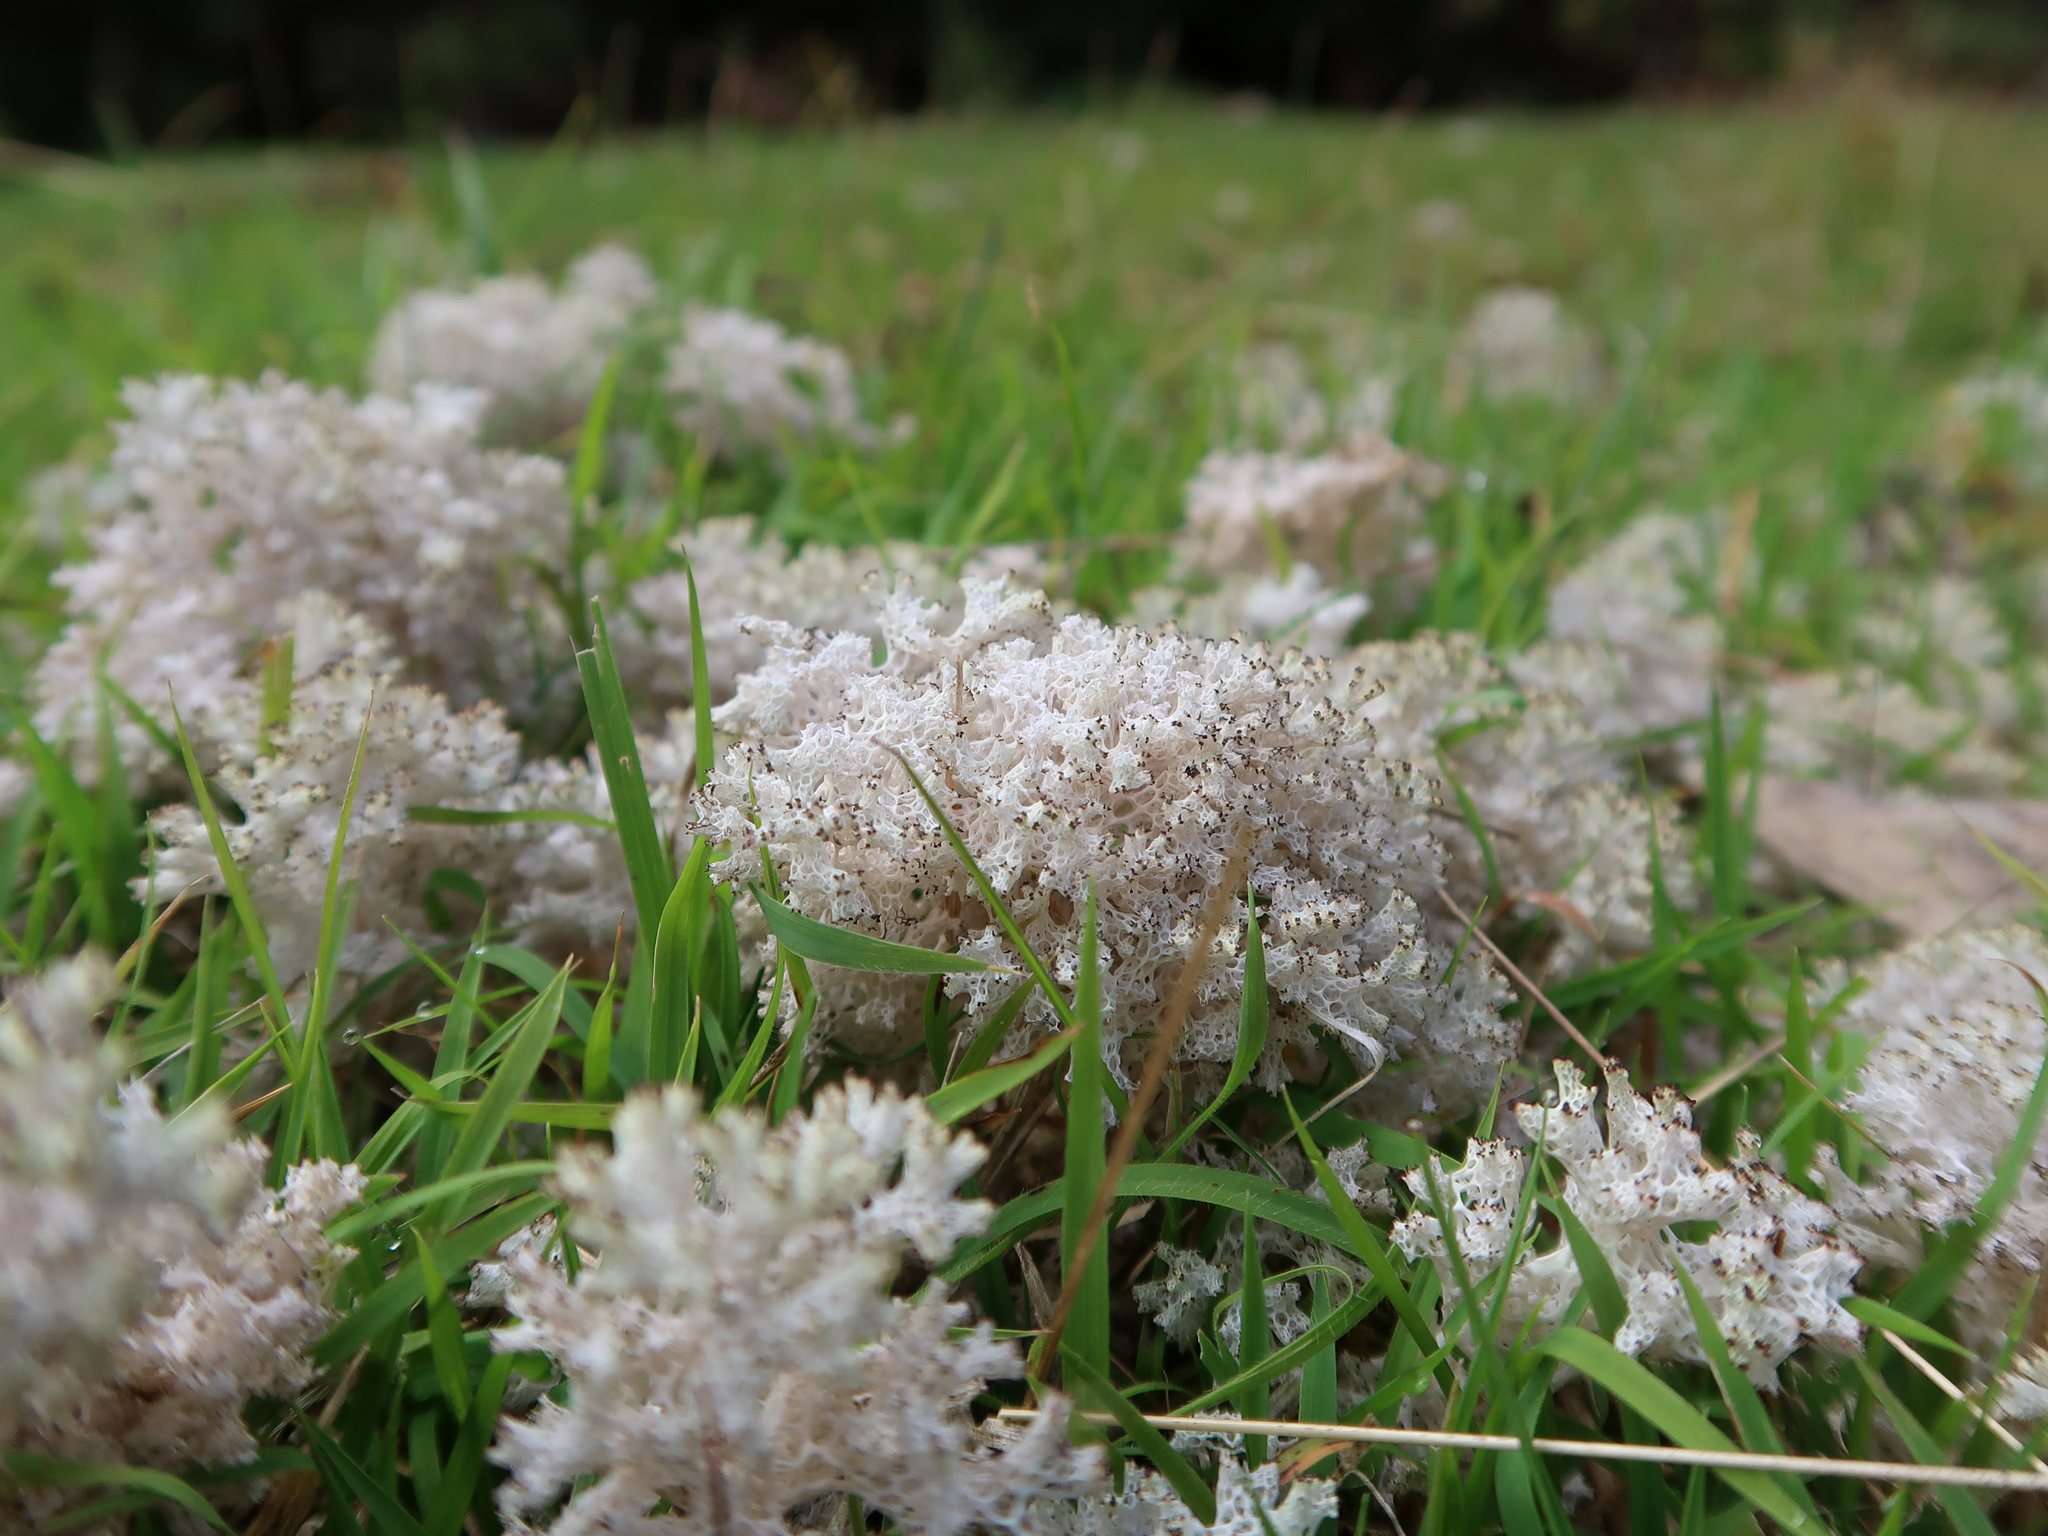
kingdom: Fungi
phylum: Ascomycota
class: Lecanoromycetes
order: Lecanorales
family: Cladoniaceae
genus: Pulchrocladia
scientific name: Pulchrocladia retipora
